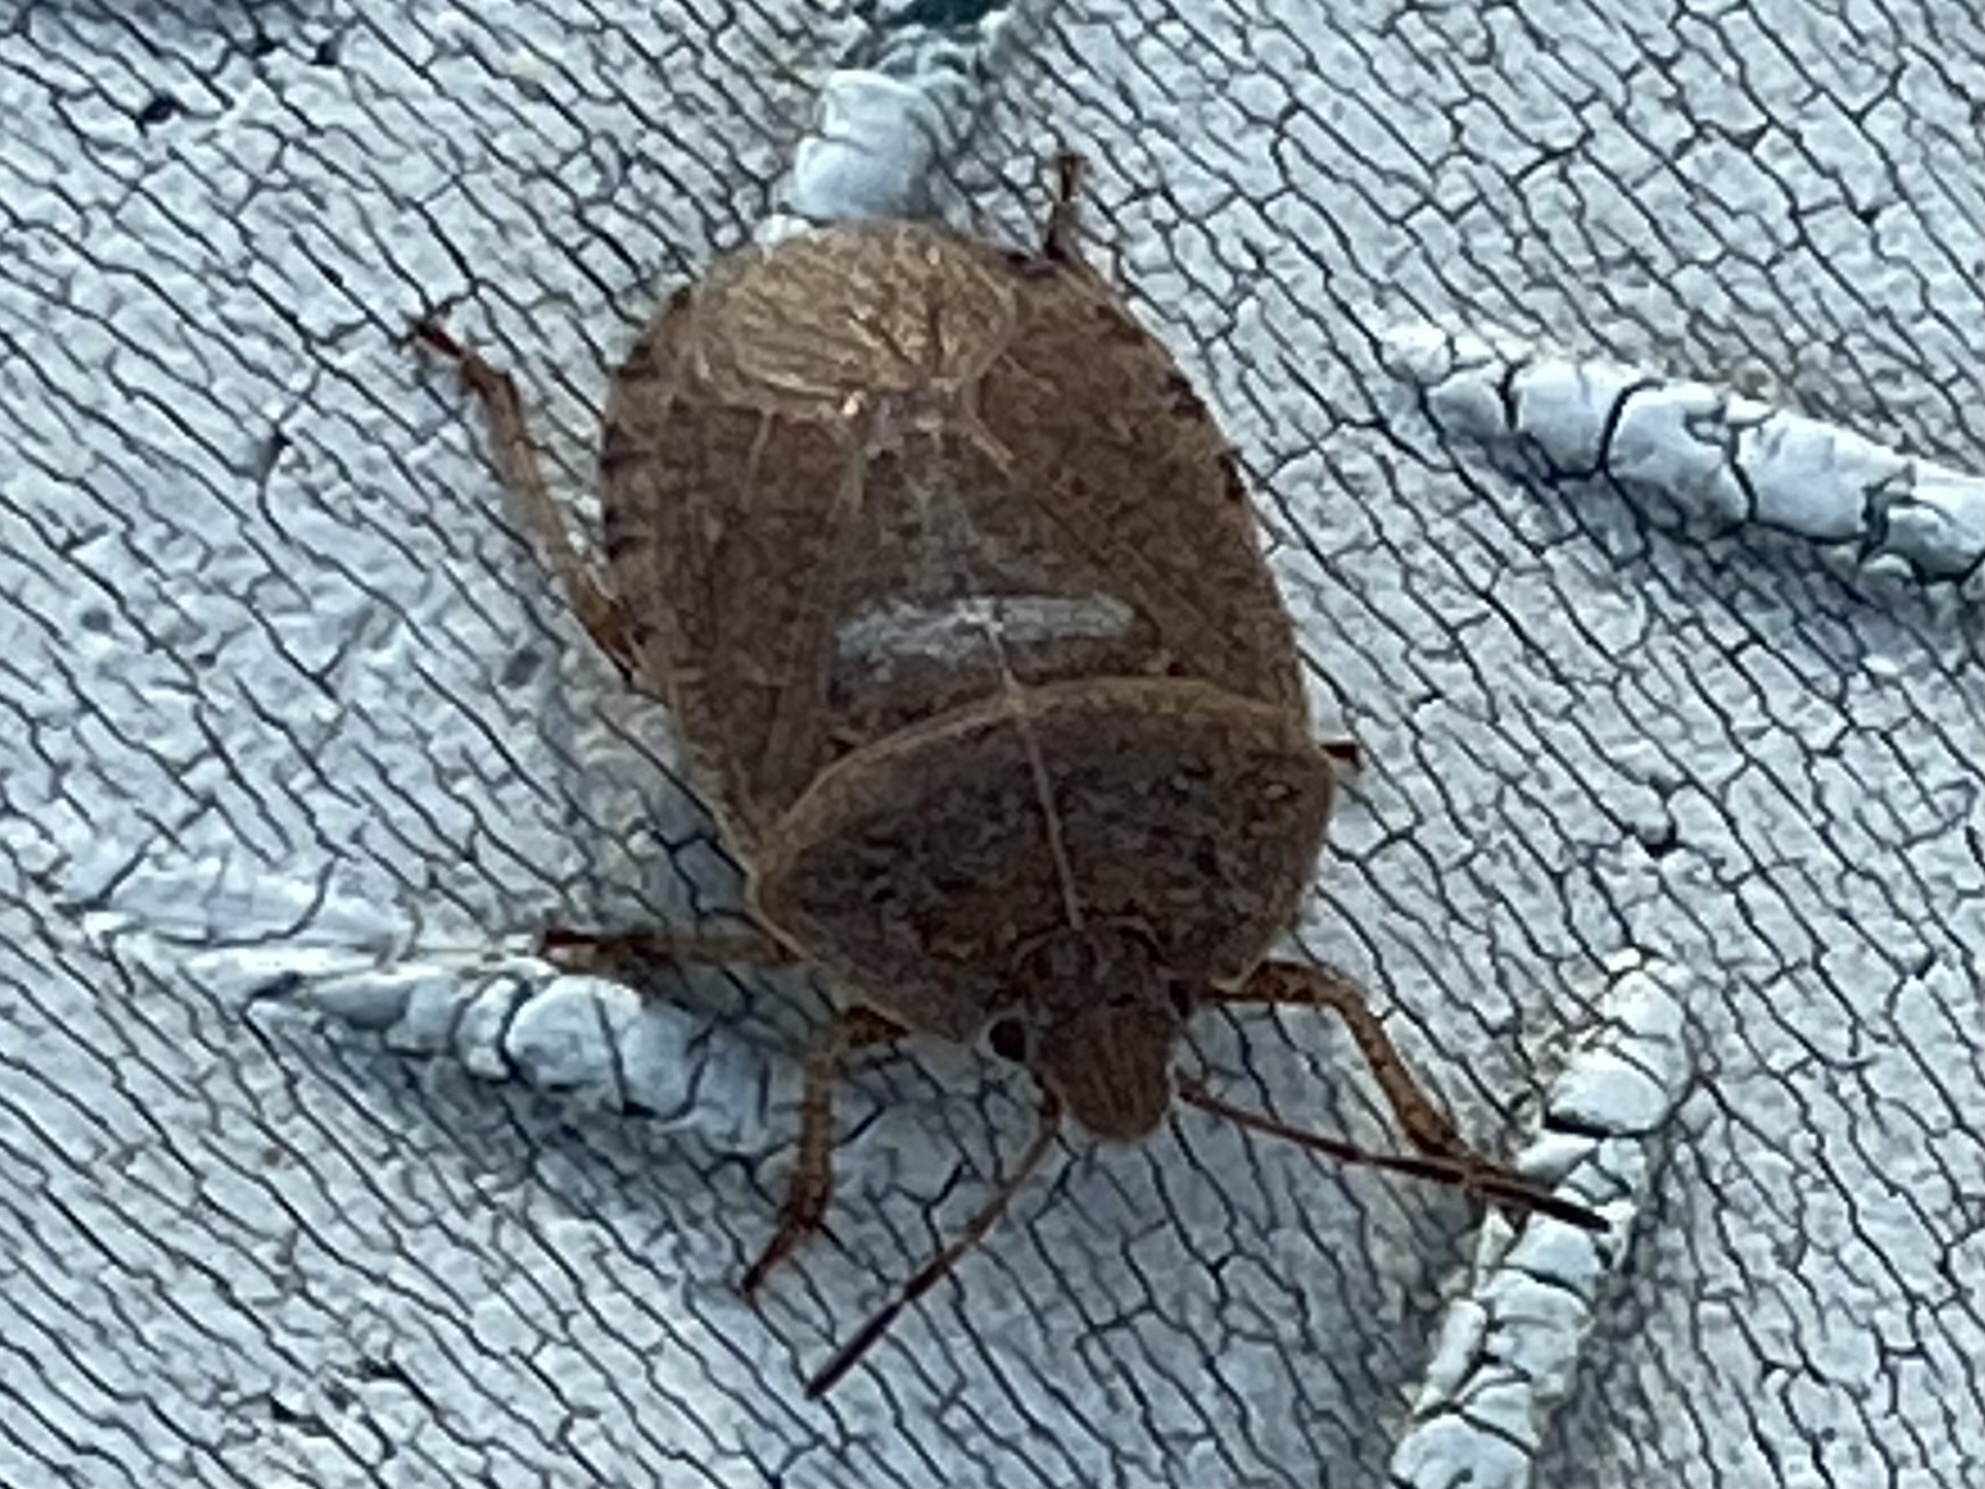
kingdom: Animalia
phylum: Arthropoda
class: Insecta
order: Hemiptera
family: Pentatomidae
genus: Menecles
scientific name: Menecles insertus
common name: Elf shoe stink bug
